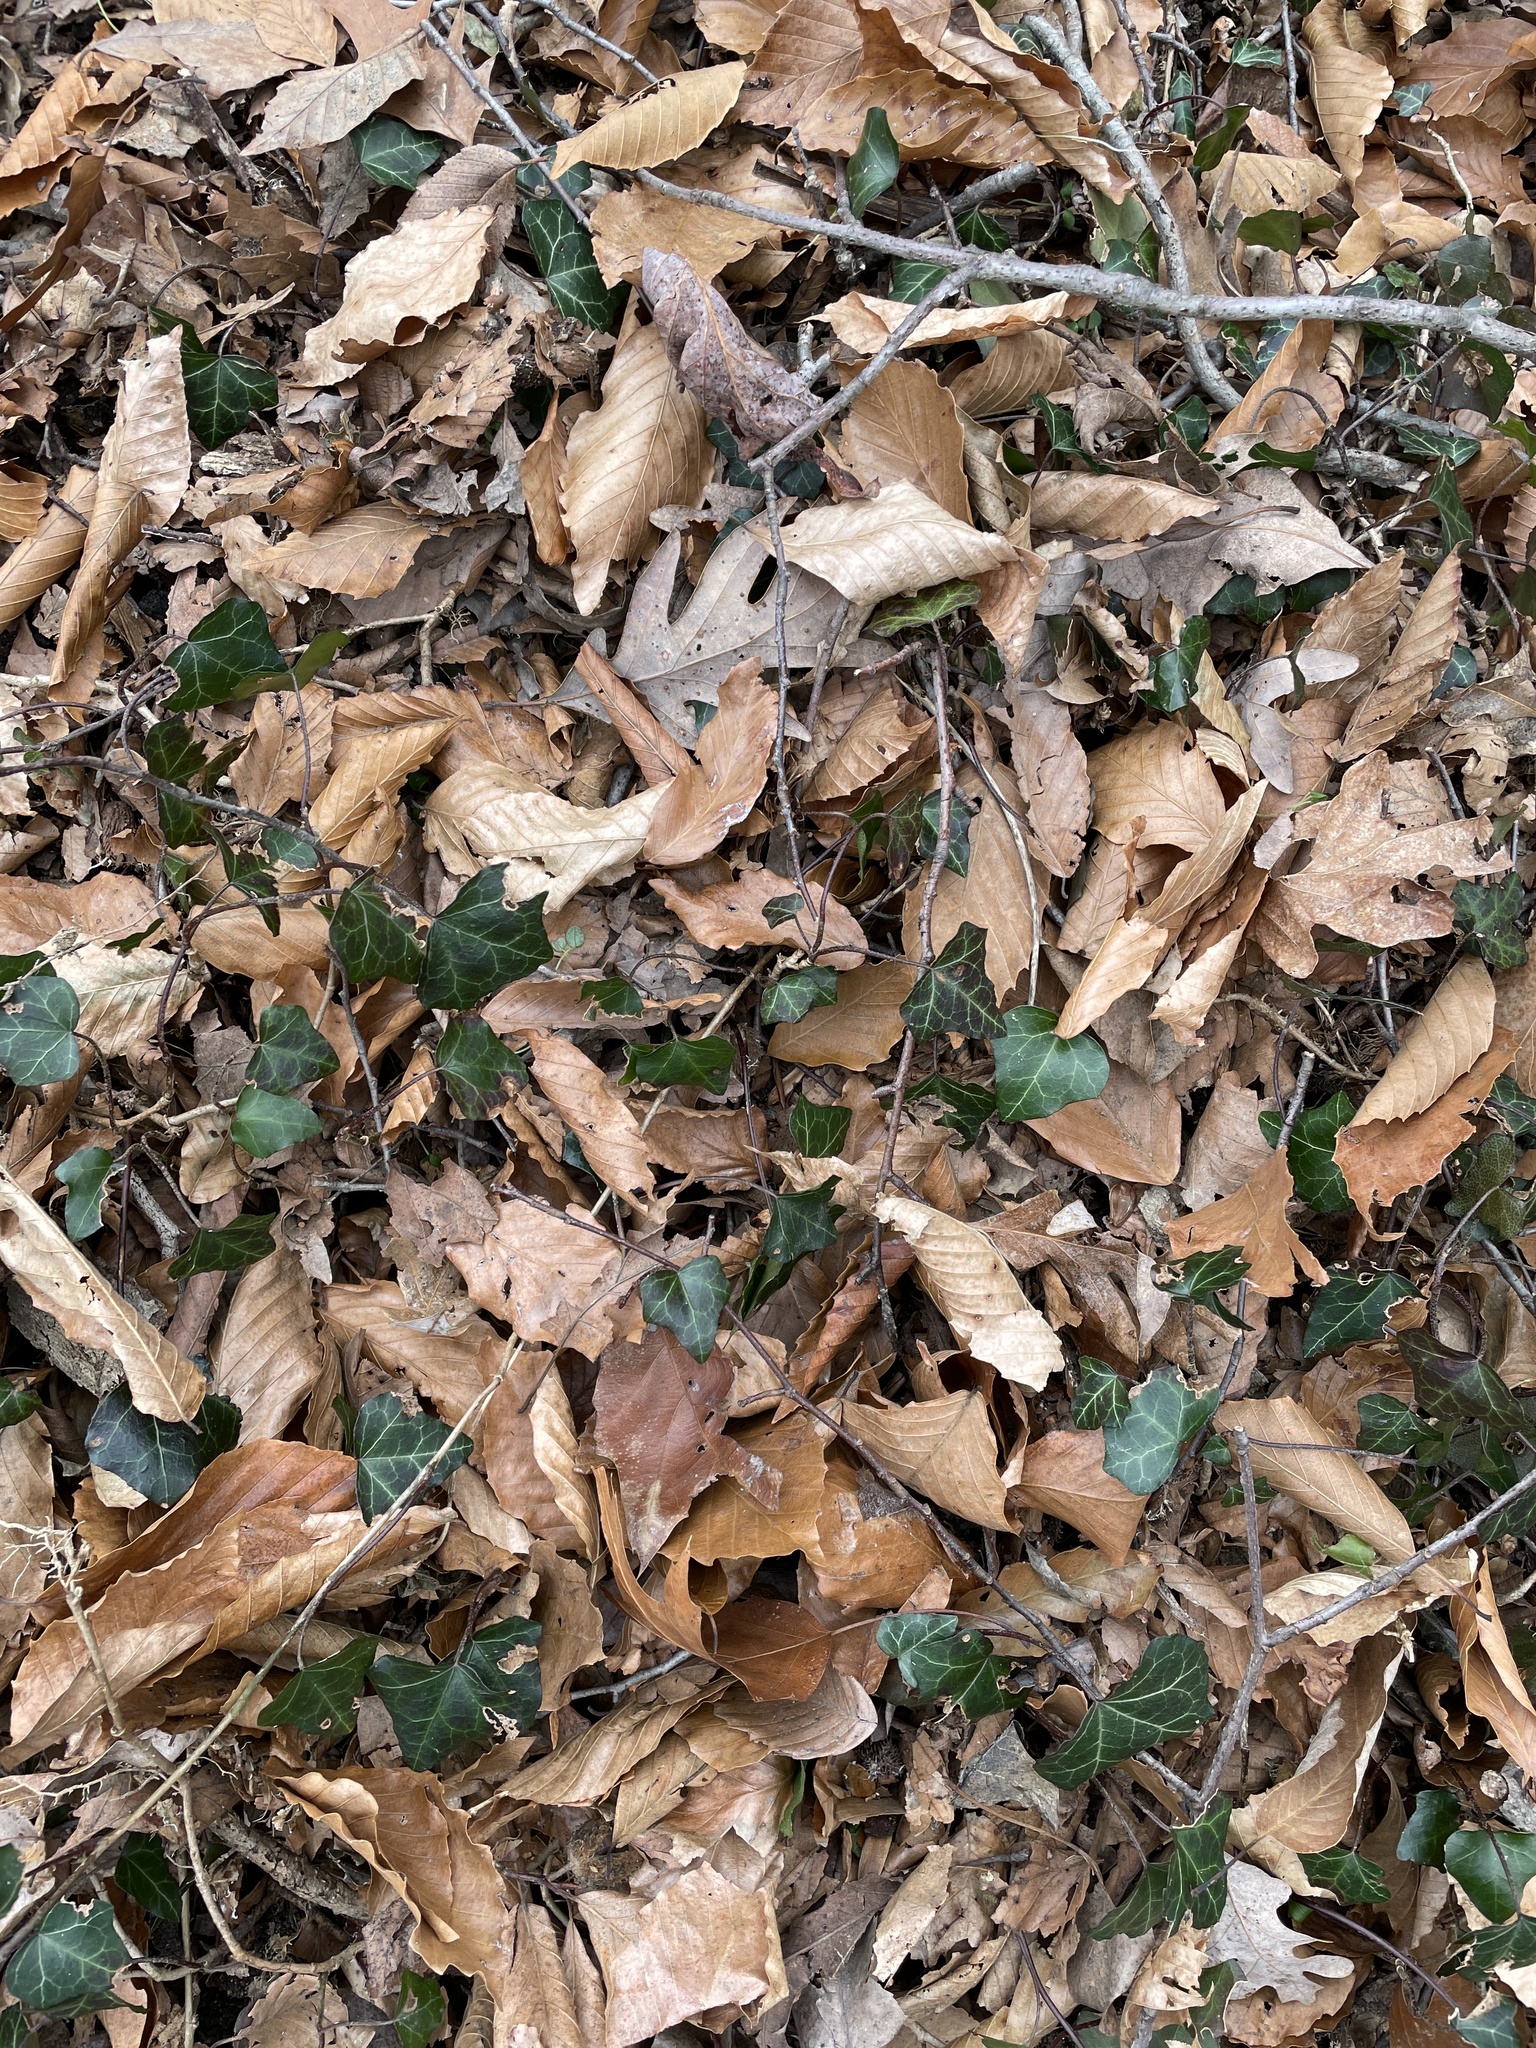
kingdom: Plantae
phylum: Tracheophyta
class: Magnoliopsida
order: Apiales
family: Araliaceae
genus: Hedera
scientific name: Hedera helix
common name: Ivy
